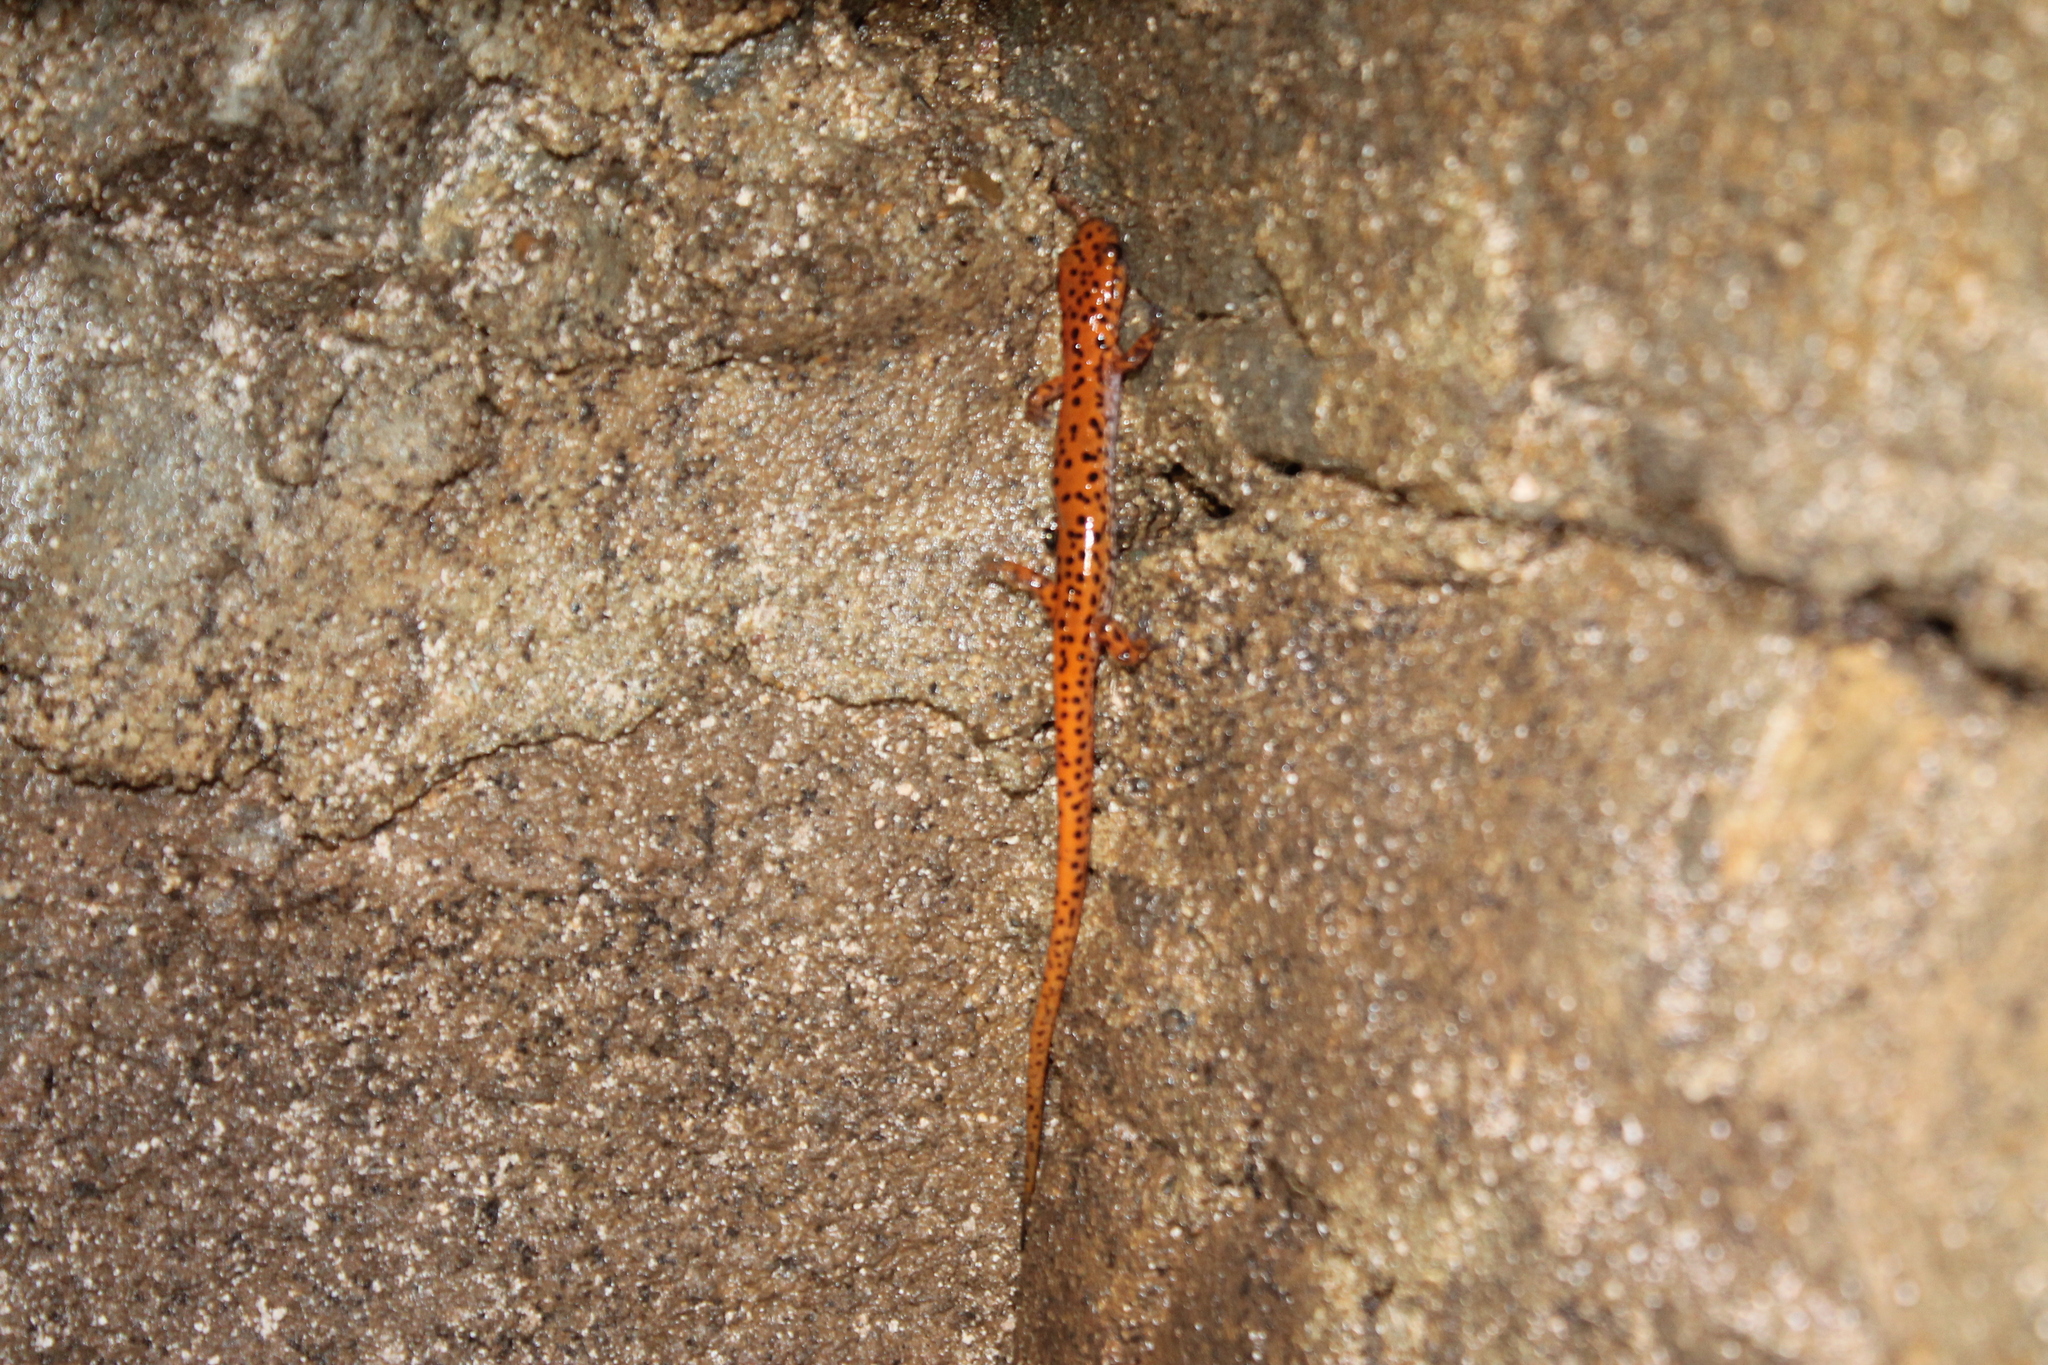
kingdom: Animalia
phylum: Chordata
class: Amphibia
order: Caudata
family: Plethodontidae
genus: Eurycea
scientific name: Eurycea lucifuga
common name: Cave salamander
